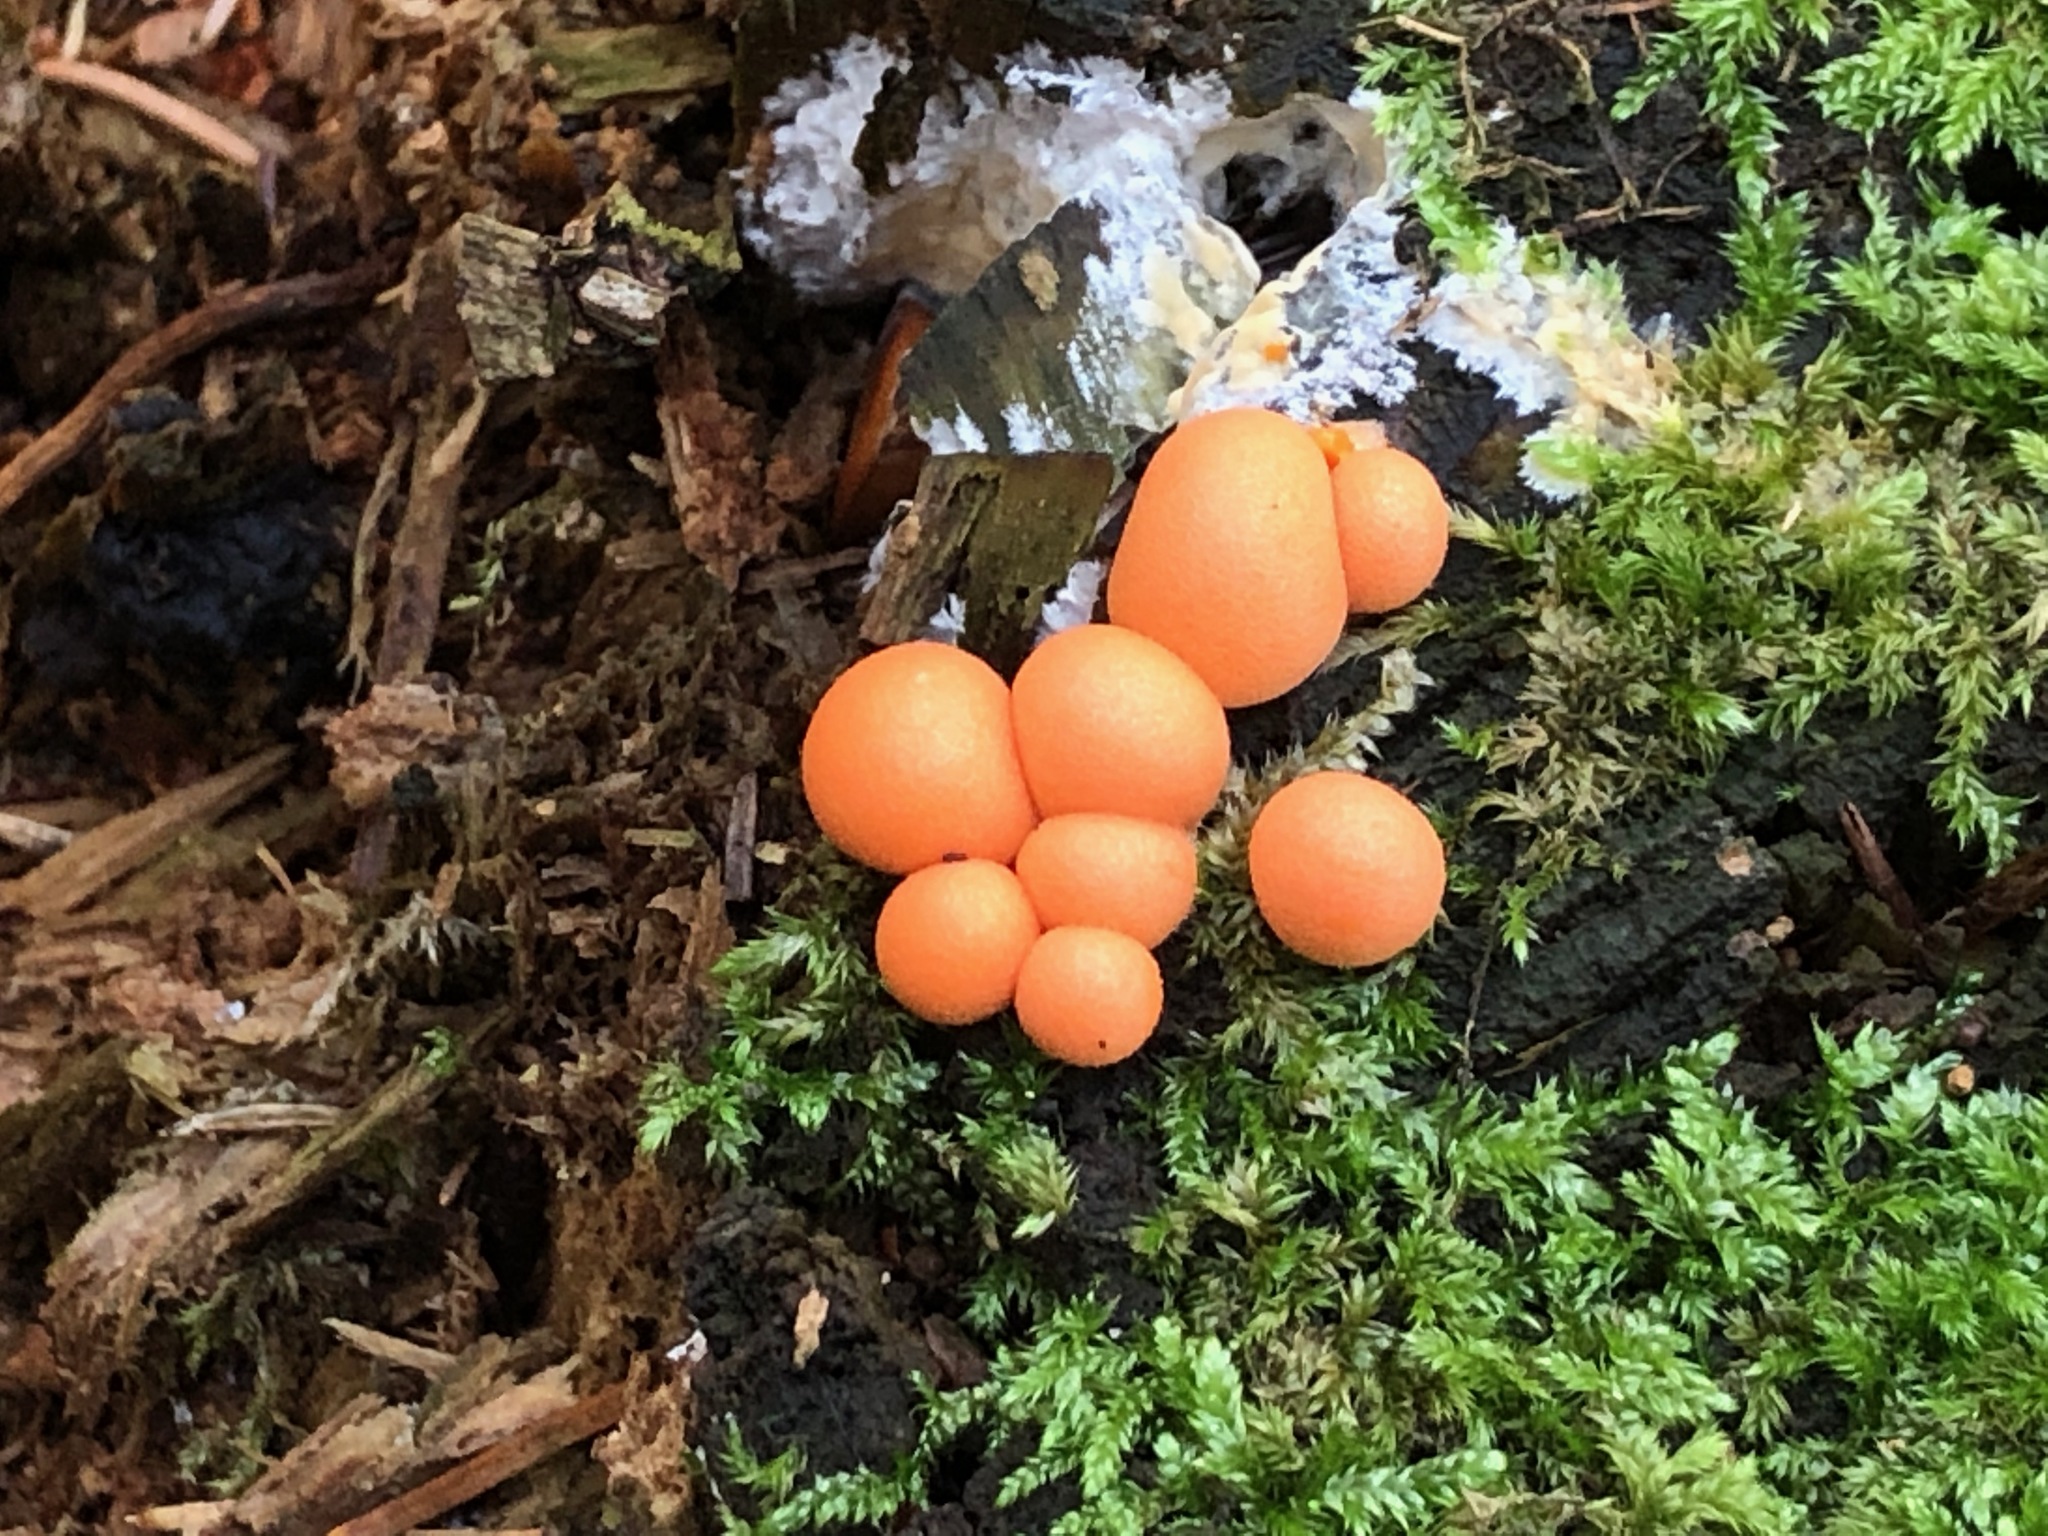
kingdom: Protozoa
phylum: Mycetozoa
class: Myxomycetes
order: Cribrariales
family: Tubiferaceae
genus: Lycogala
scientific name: Lycogala epidendrum
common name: Wolf's milk
